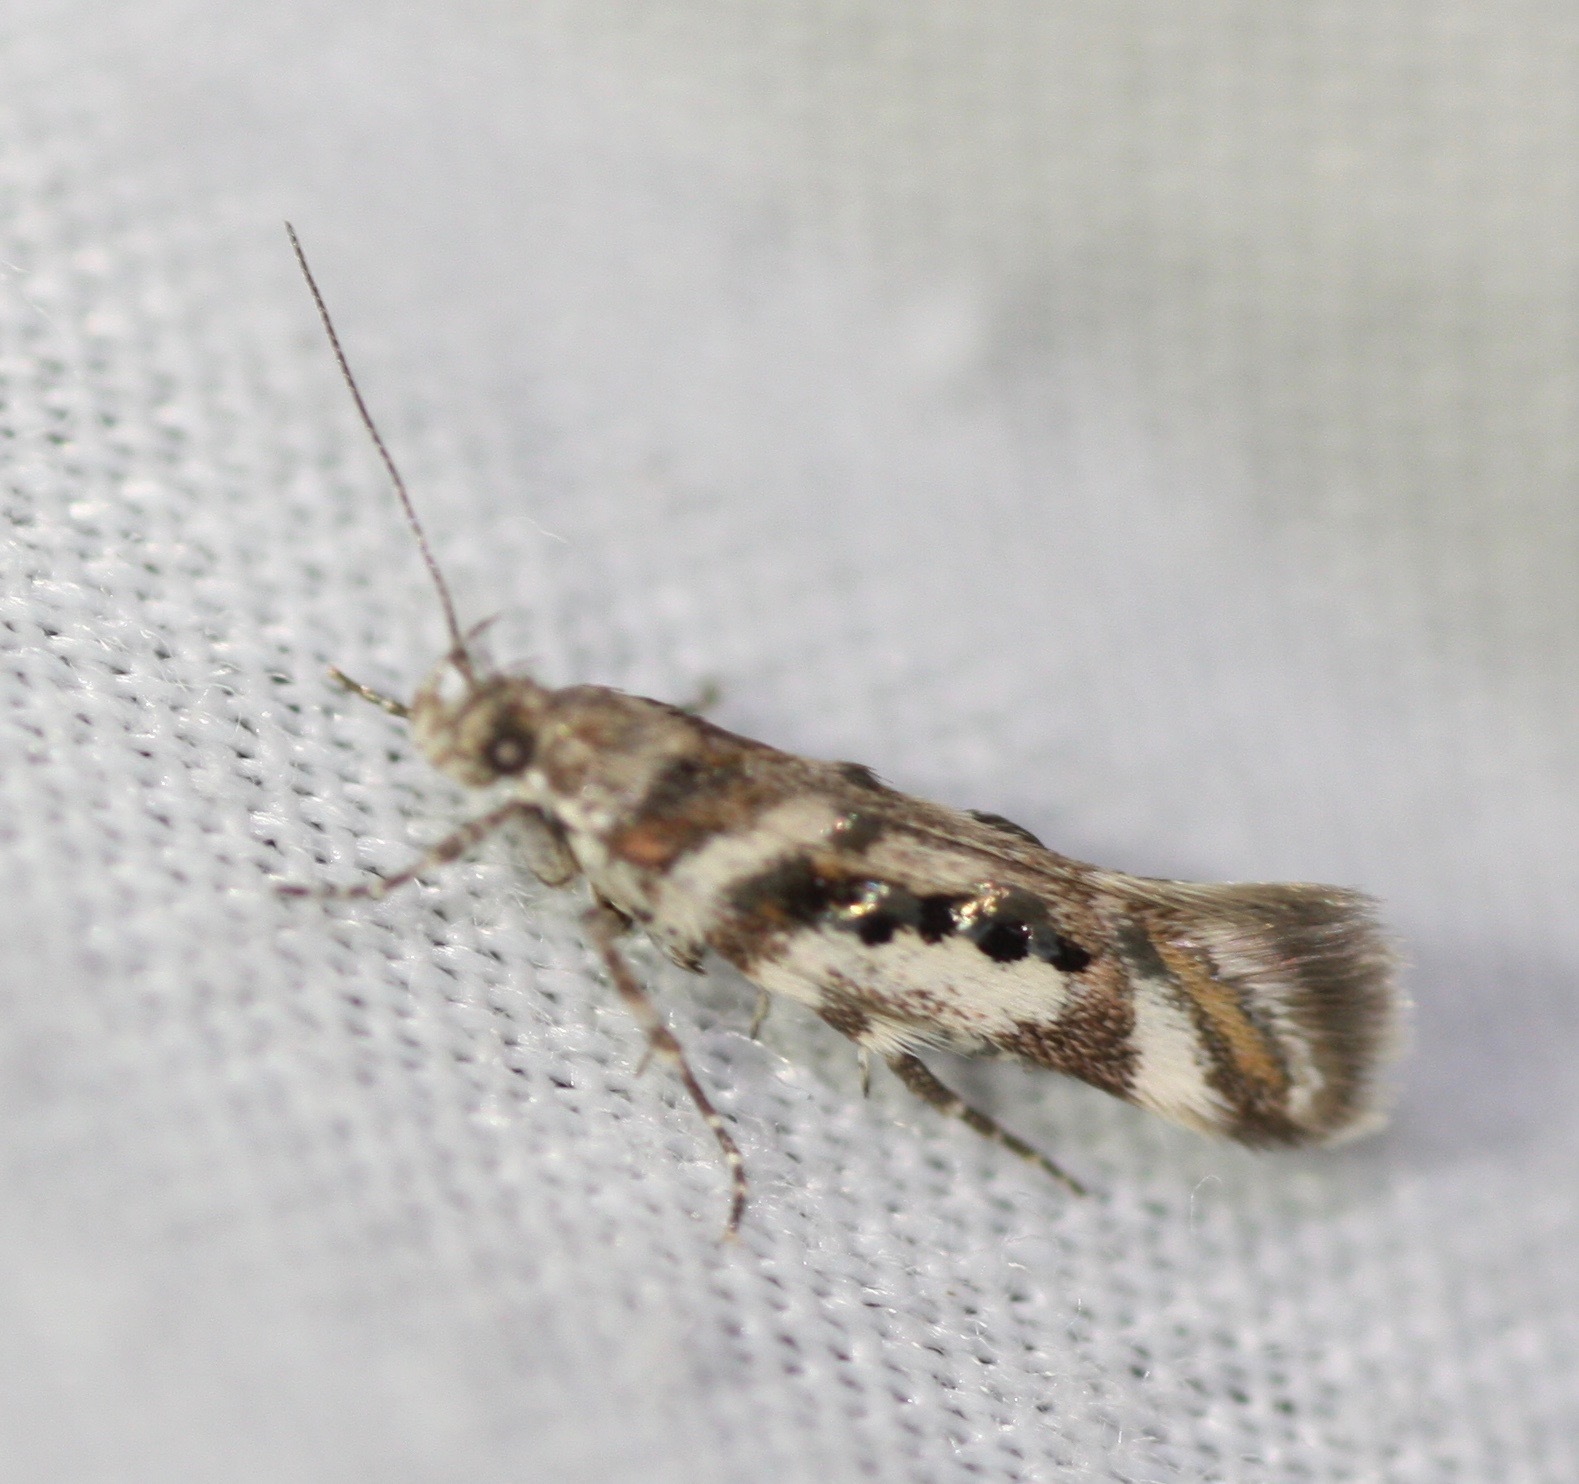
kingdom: Animalia
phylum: Arthropoda
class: Insecta
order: Lepidoptera
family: Gelechiidae
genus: Aristotelia
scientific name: Aristotelia elegantella
